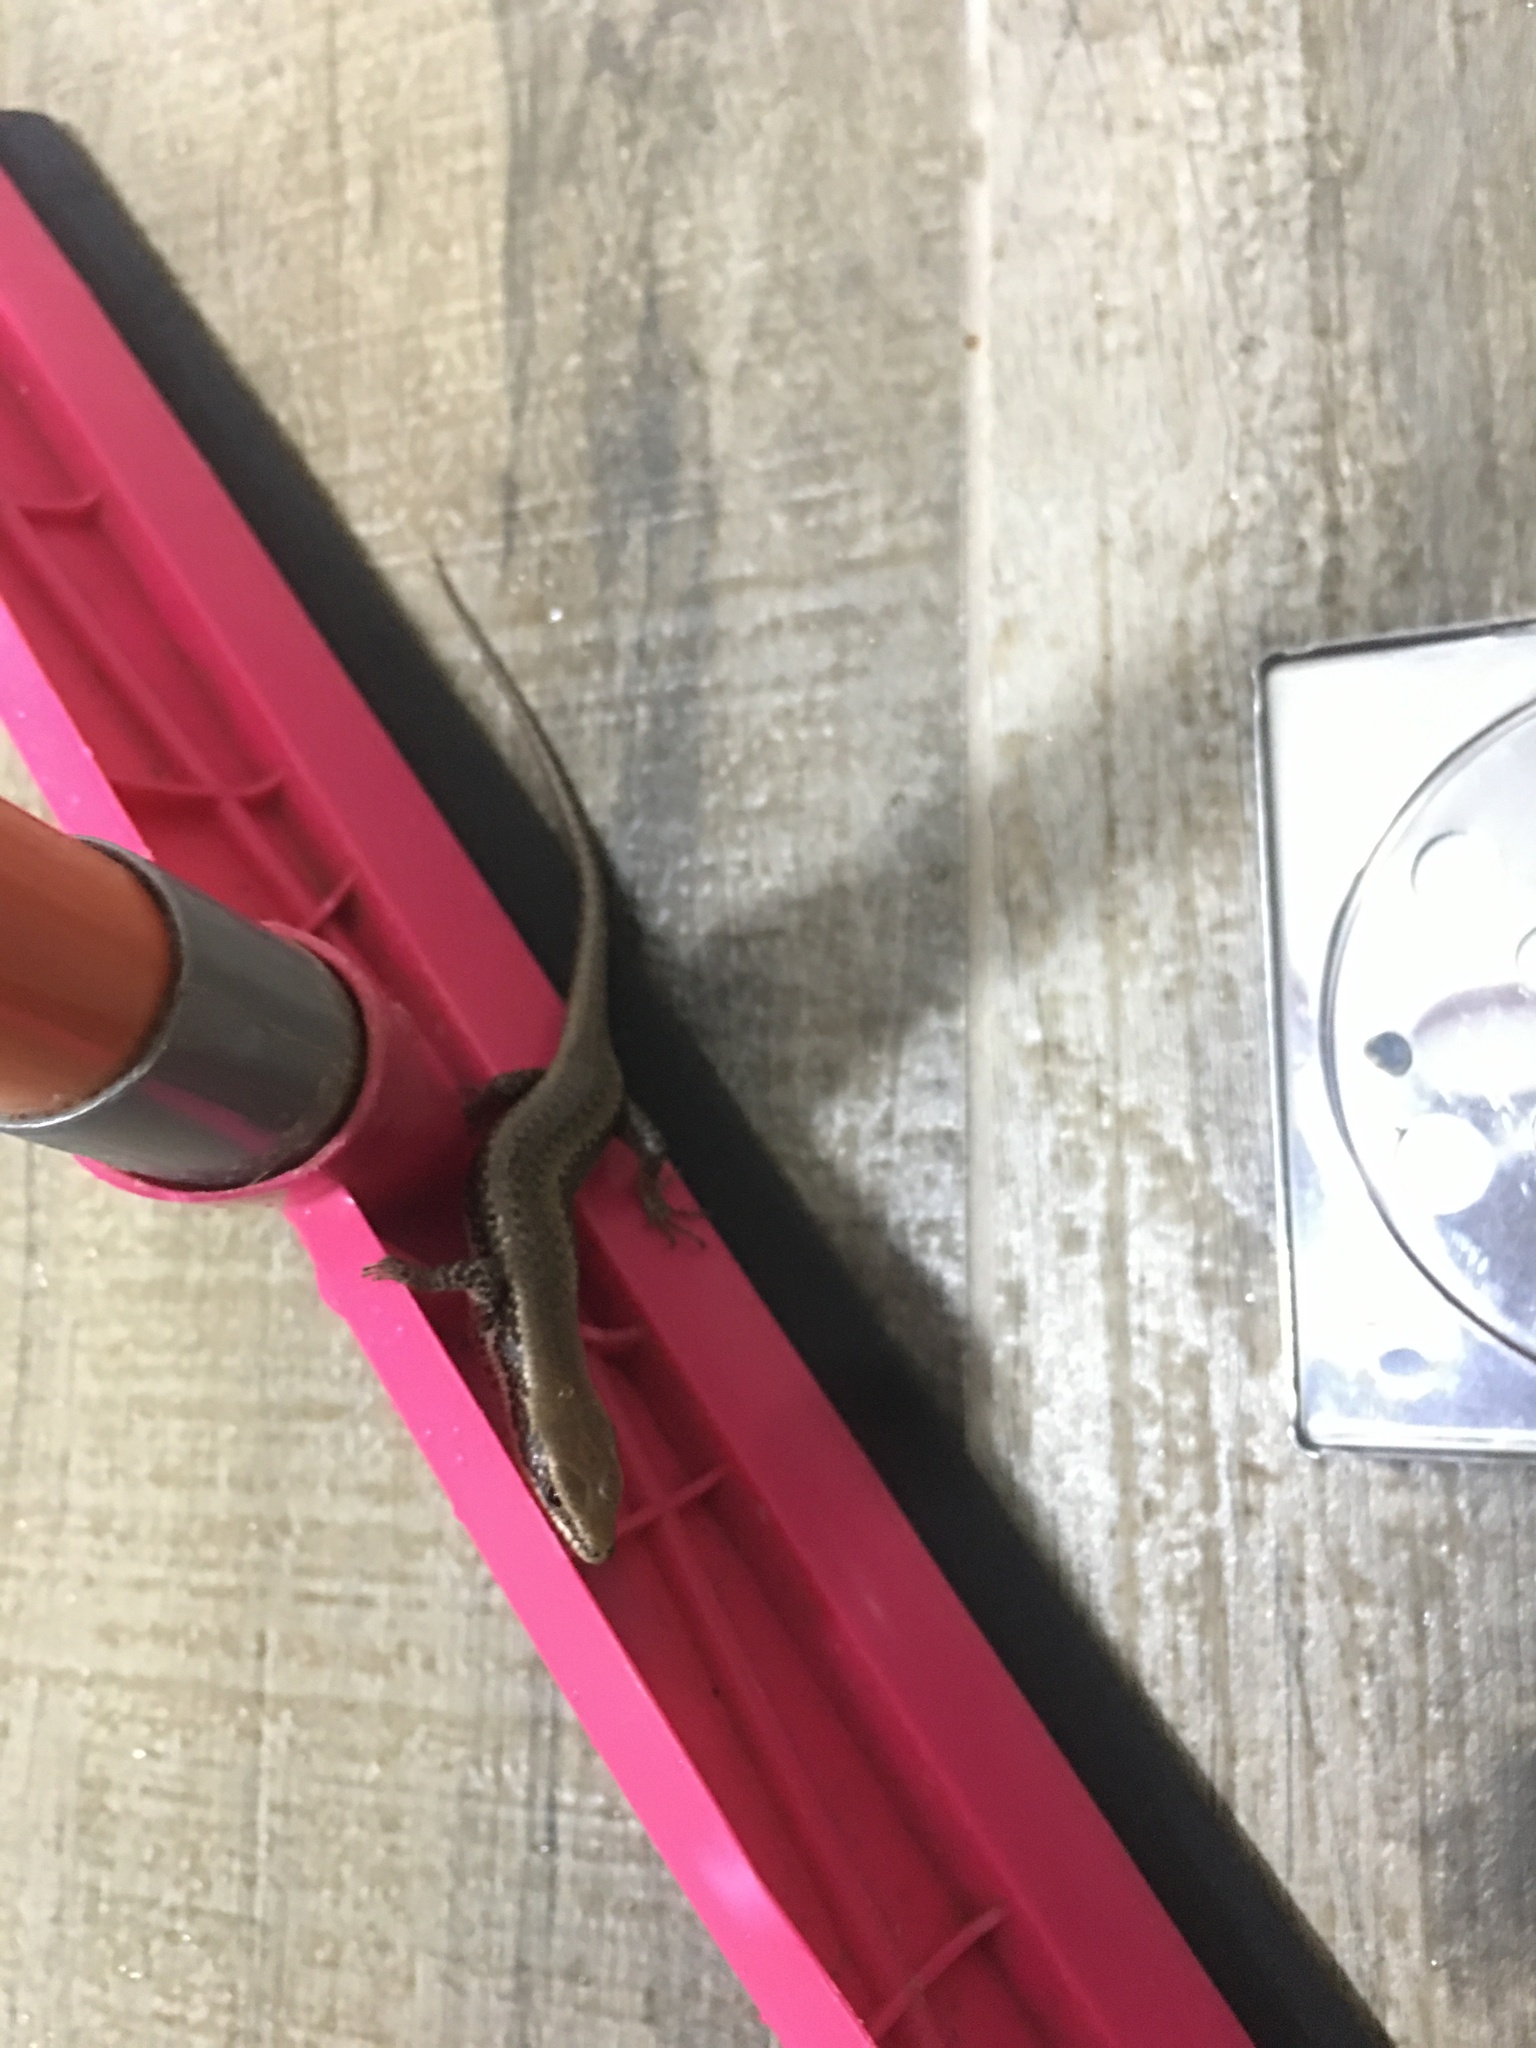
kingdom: Animalia
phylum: Chordata
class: Squamata
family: Scincidae
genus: Notomabuya
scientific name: Notomabuya frenata
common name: Cope's mabuya
